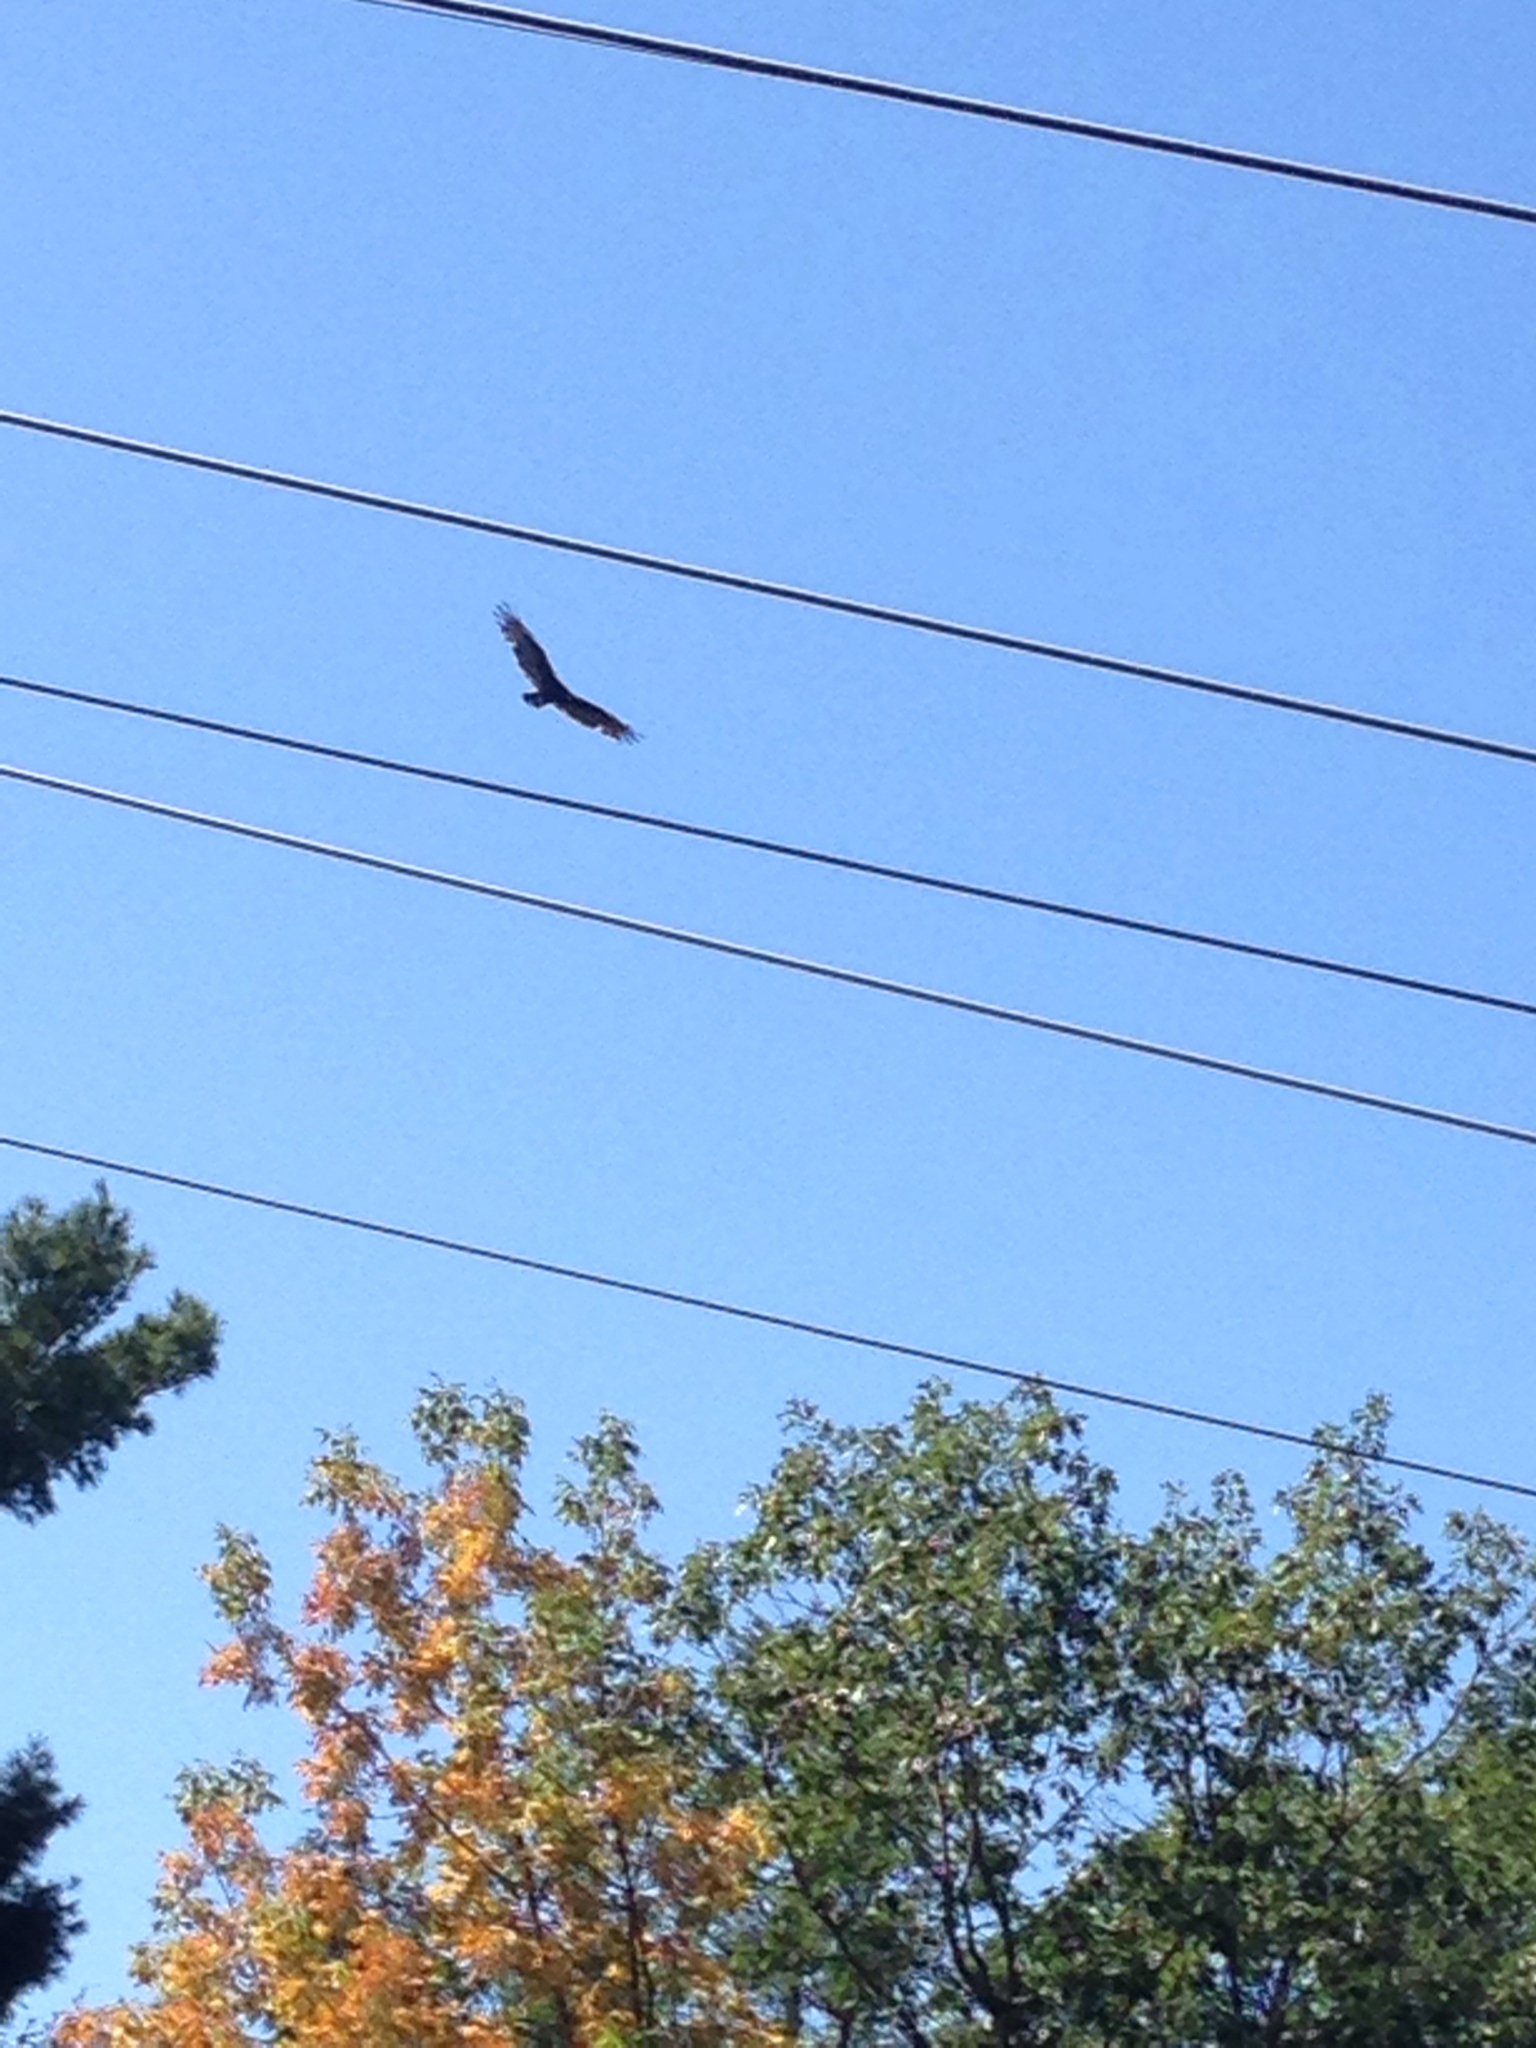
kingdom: Animalia
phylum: Chordata
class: Aves
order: Accipitriformes
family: Cathartidae
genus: Cathartes
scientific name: Cathartes aura
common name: Turkey vulture
